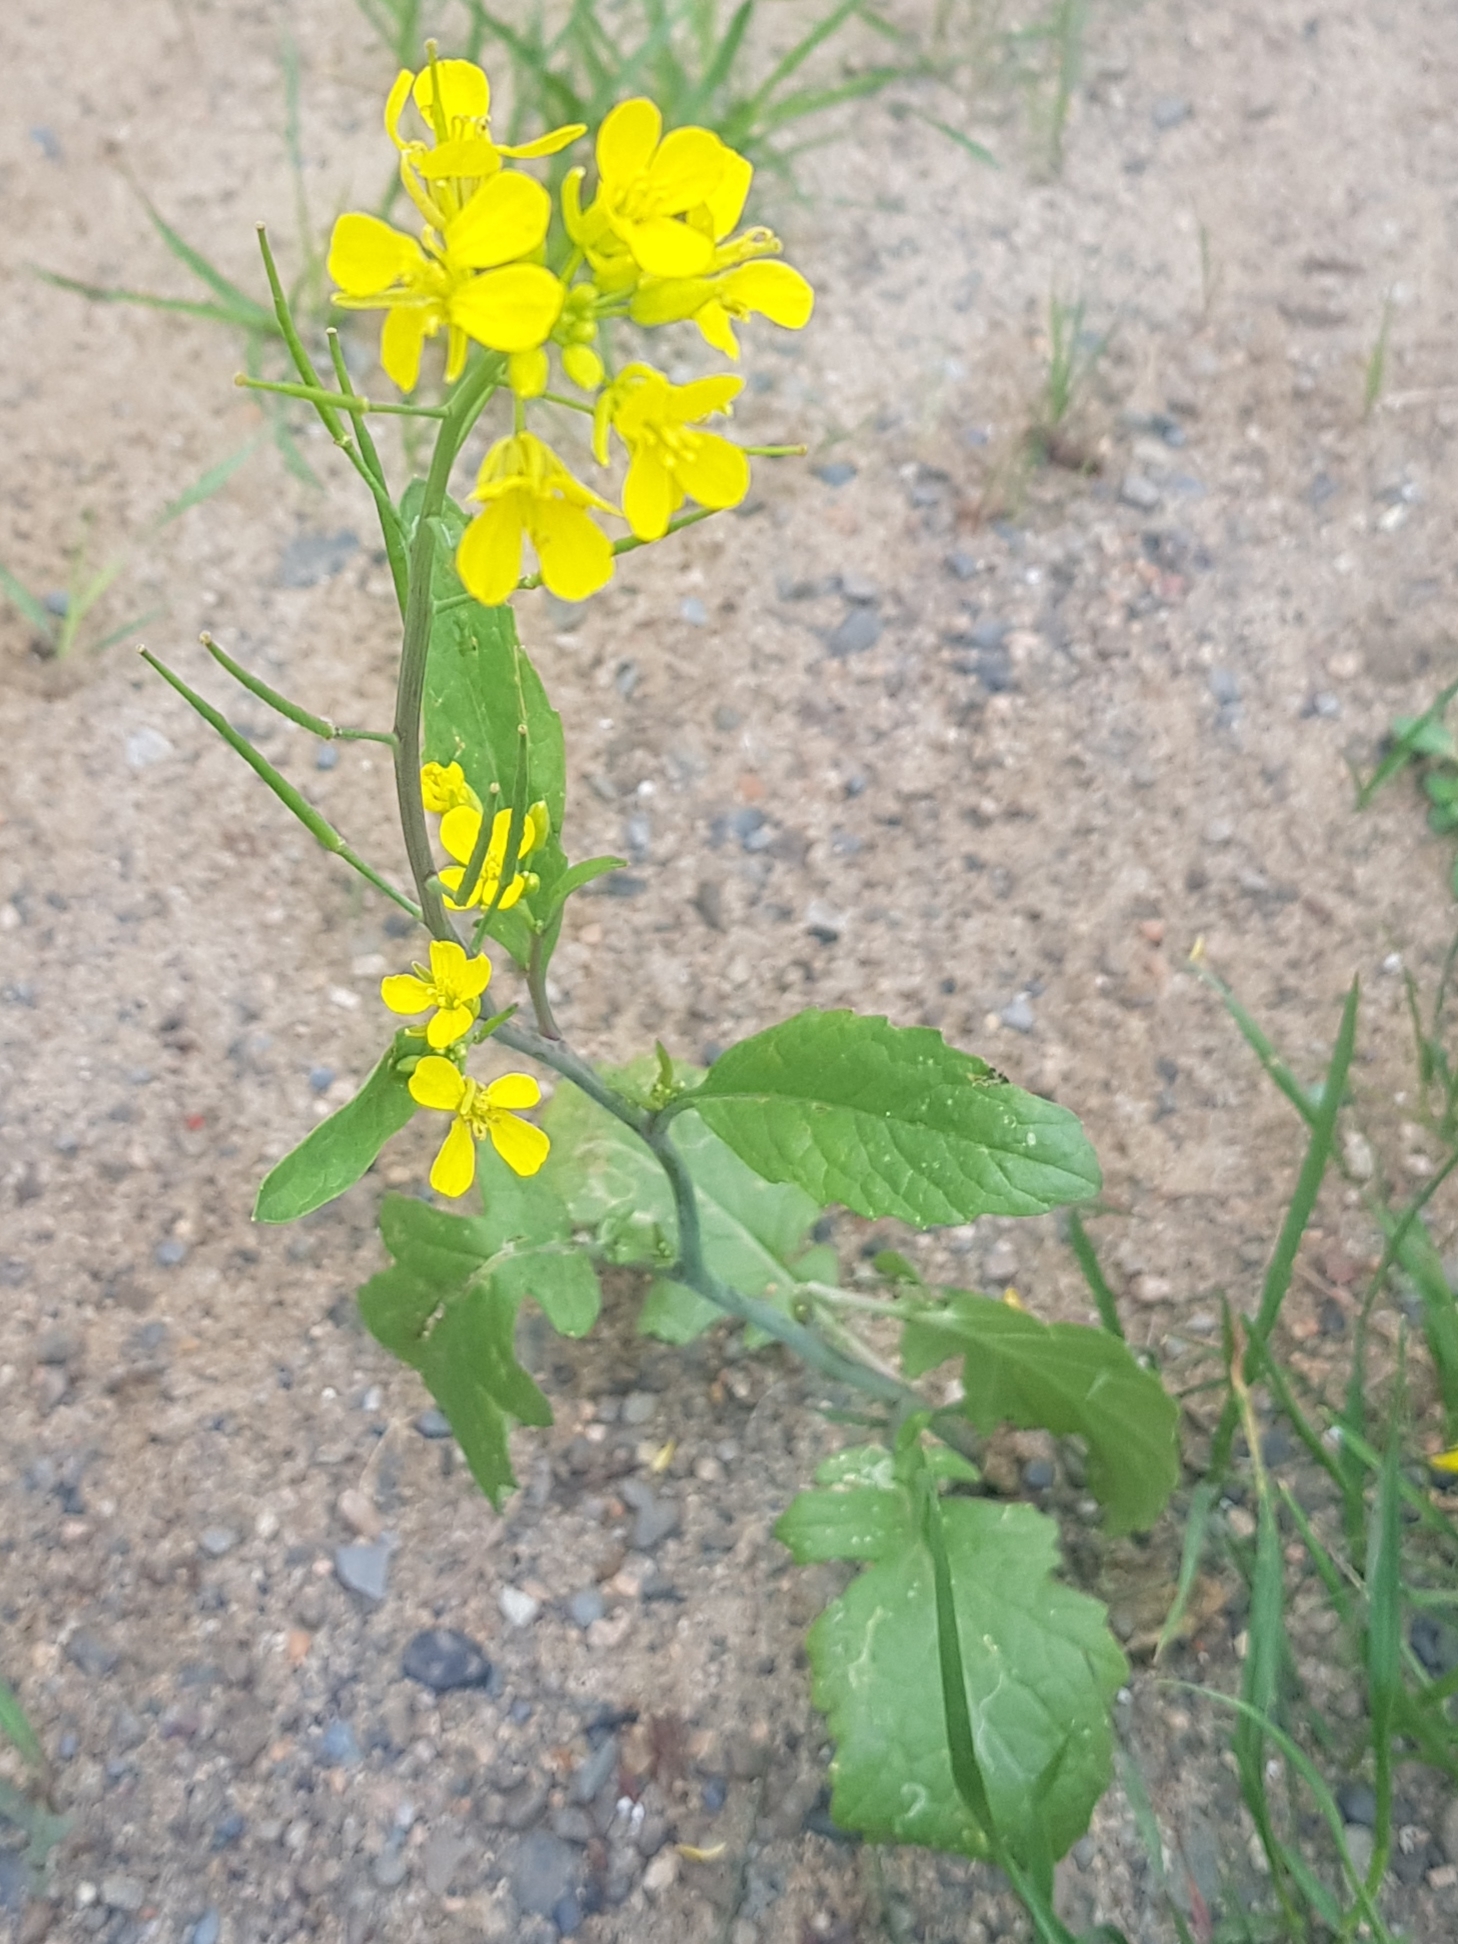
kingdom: Plantae
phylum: Tracheophyta
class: Magnoliopsida
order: Brassicales
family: Brassicaceae
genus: Brassica
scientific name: Brassica napus
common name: Rape
